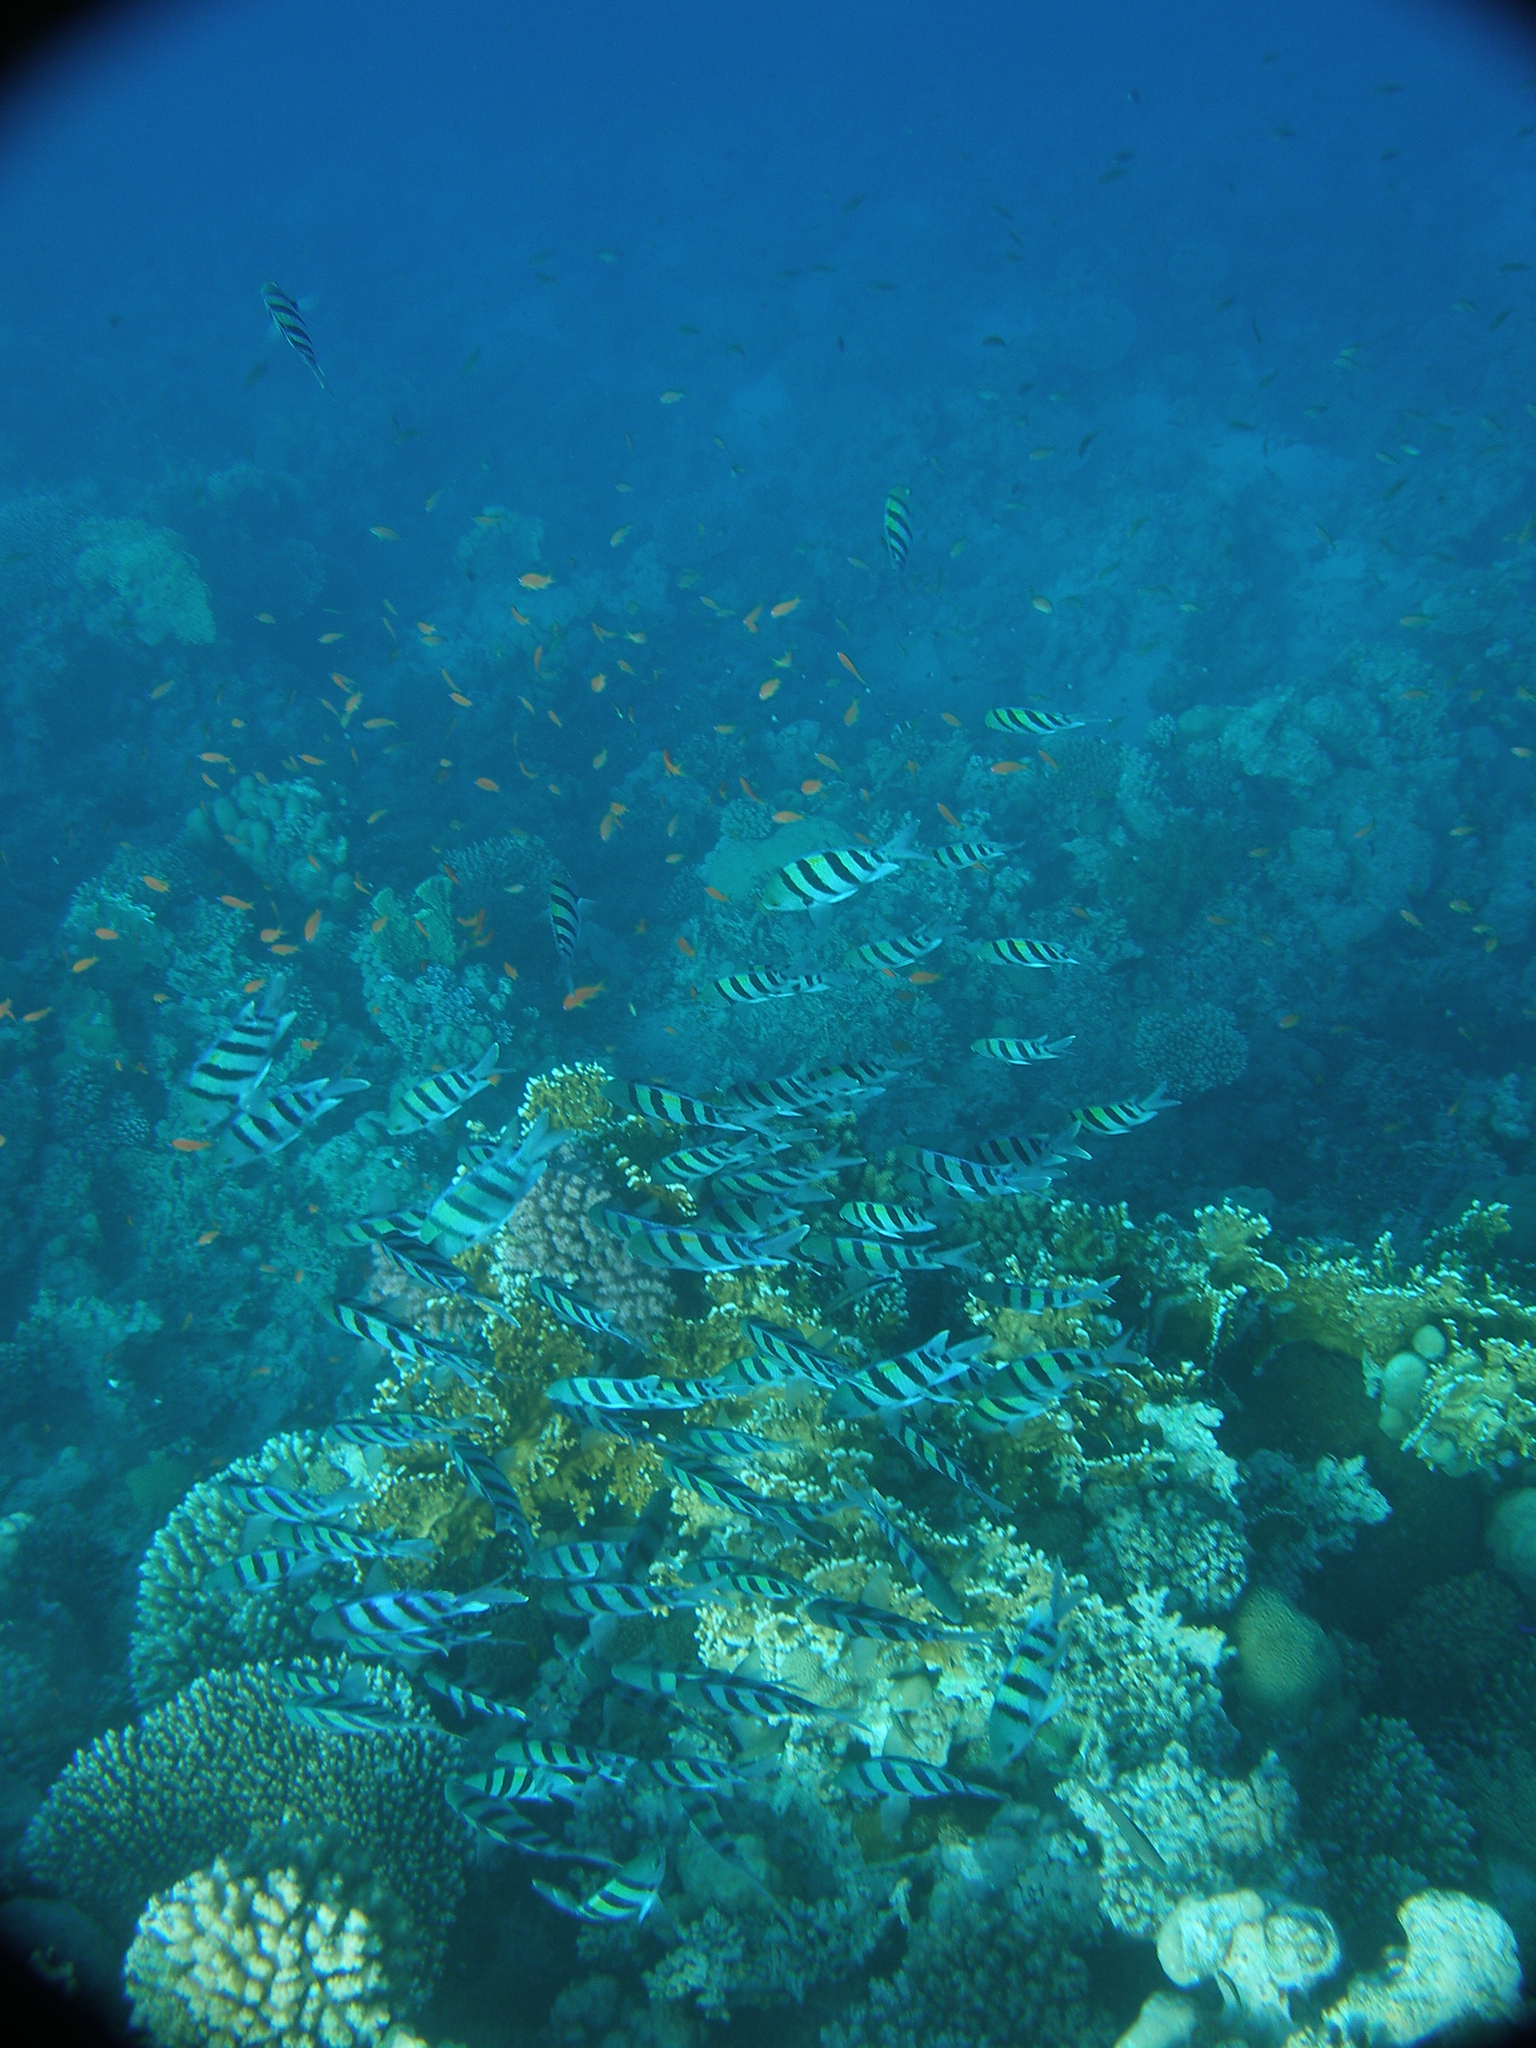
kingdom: Animalia
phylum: Chordata
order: Perciformes
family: Pomacentridae
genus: Abudefduf
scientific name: Abudefduf vaigiensis
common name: Indo-pacific sergeant
